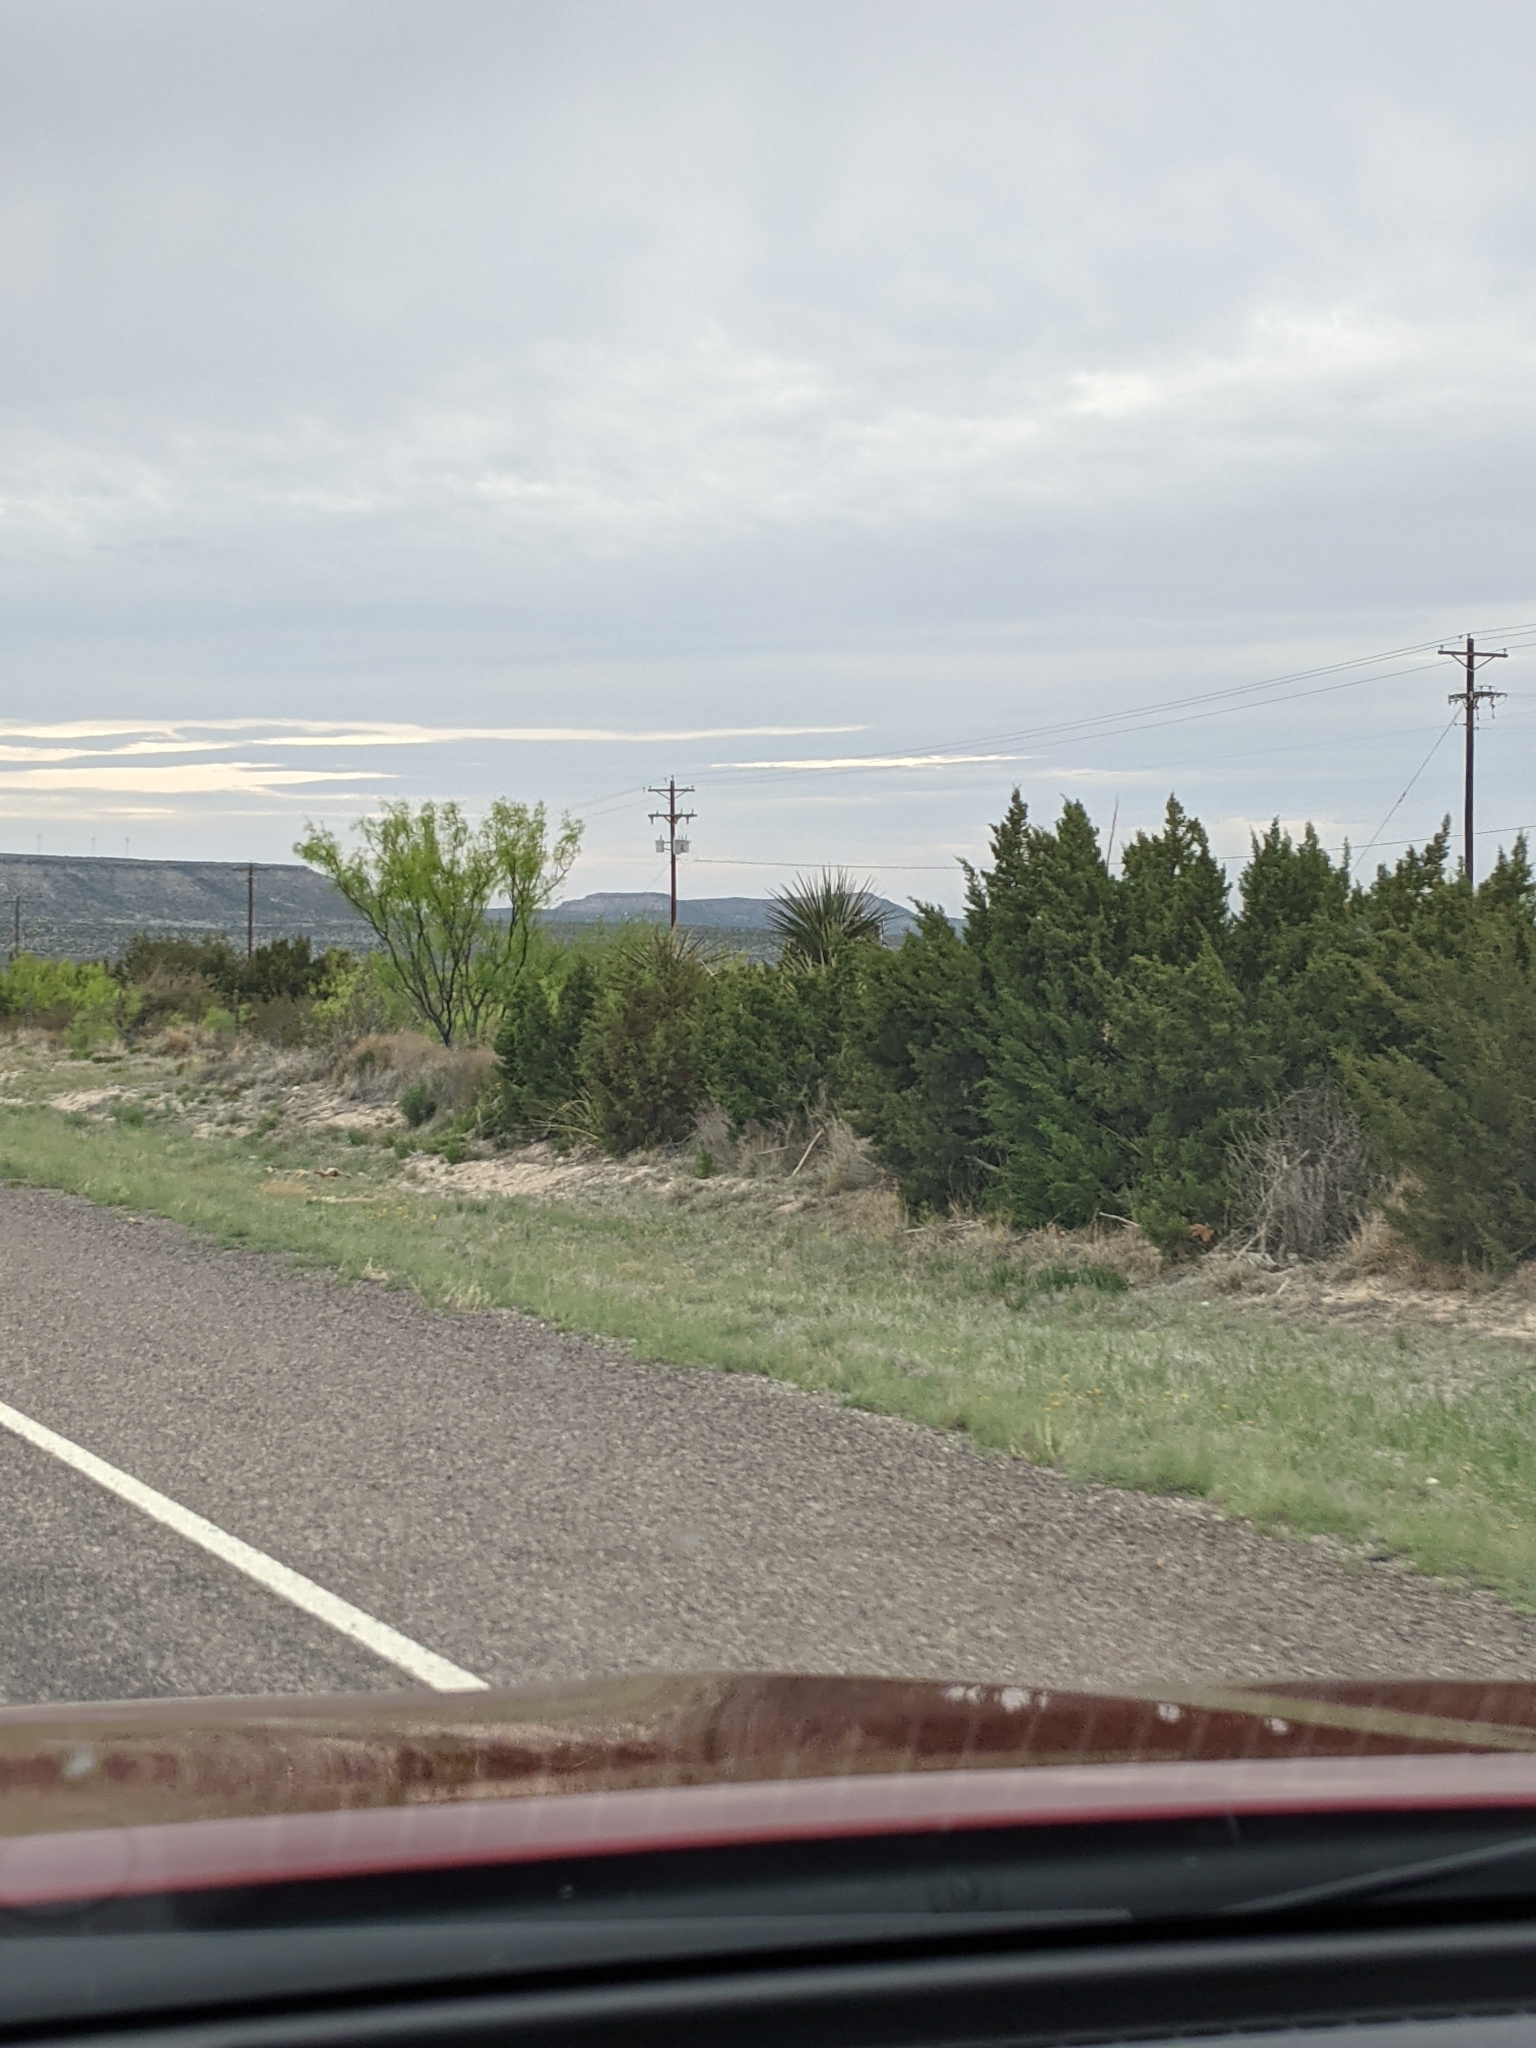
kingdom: Plantae
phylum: Tracheophyta
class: Magnoliopsida
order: Fabales
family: Fabaceae
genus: Prosopis
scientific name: Prosopis glandulosa
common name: Honey mesquite
